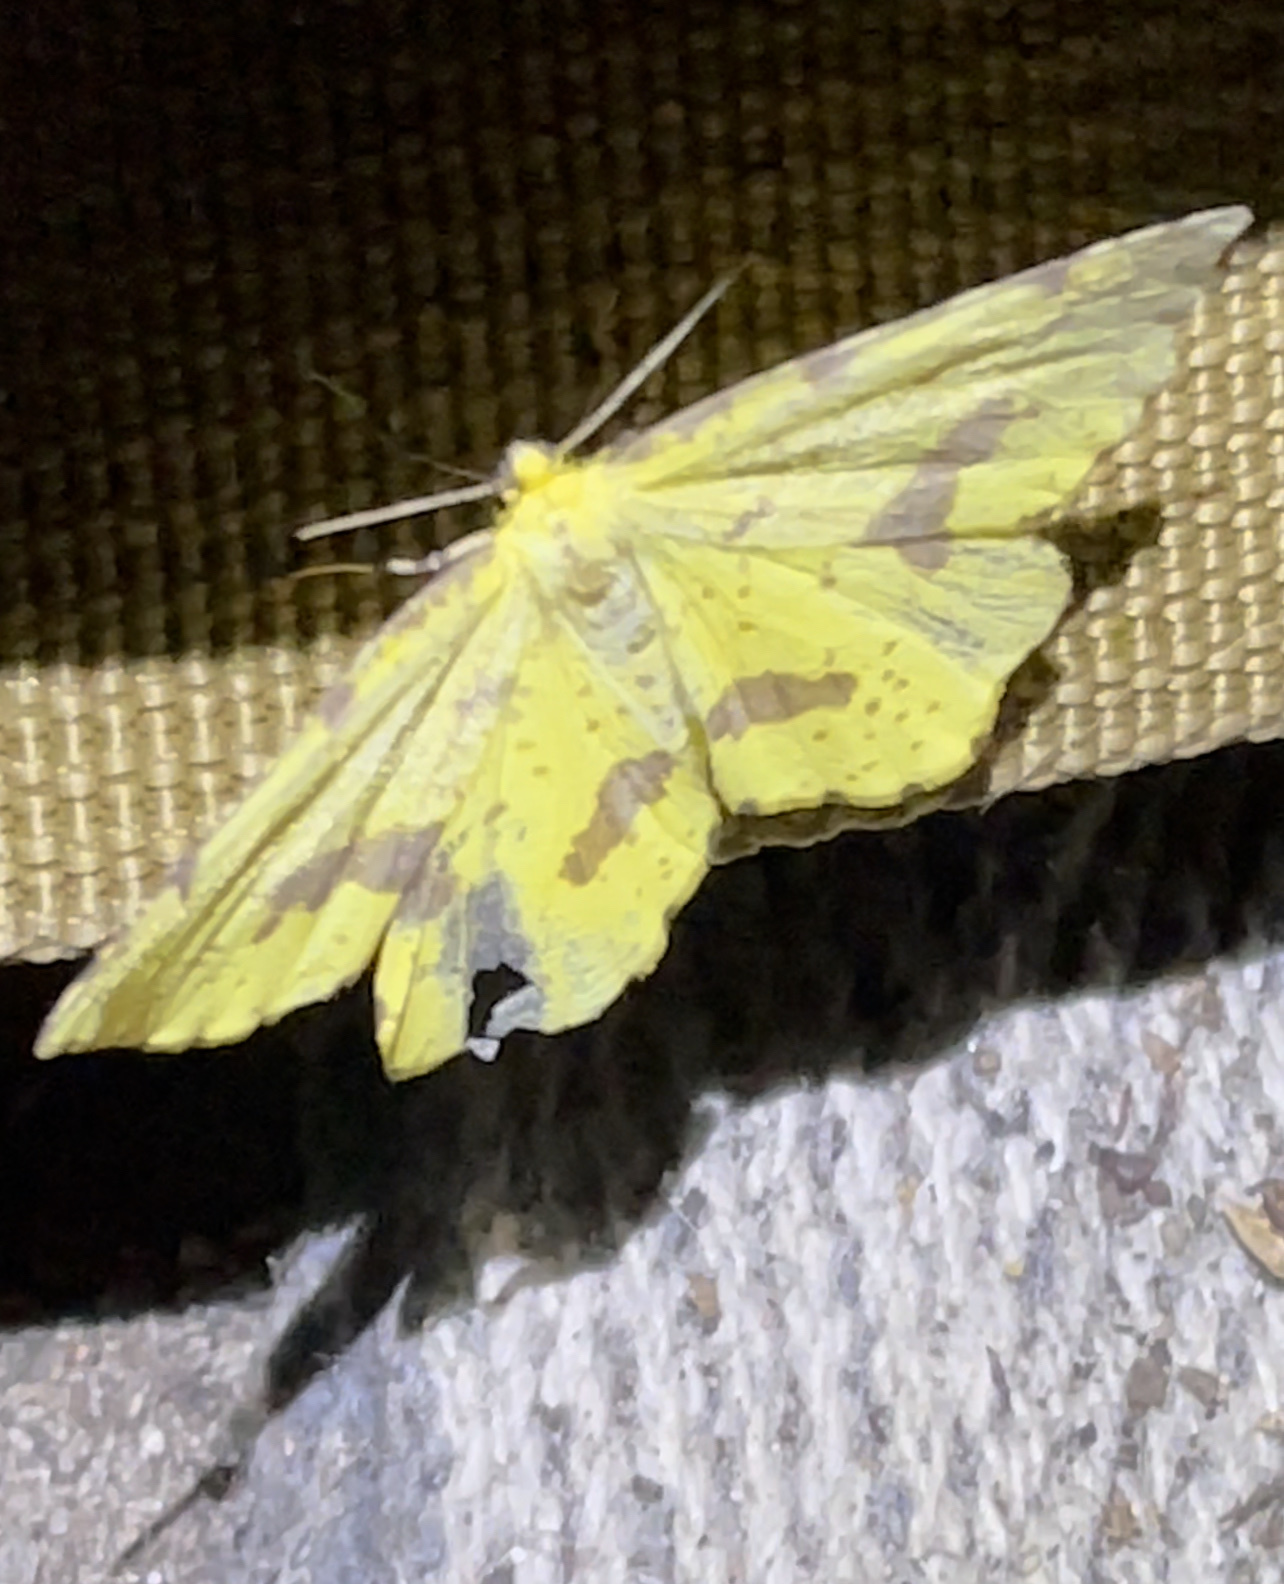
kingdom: Animalia
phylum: Arthropoda
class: Insecta
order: Lepidoptera
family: Geometridae
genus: Xanthotype
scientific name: Xanthotype
